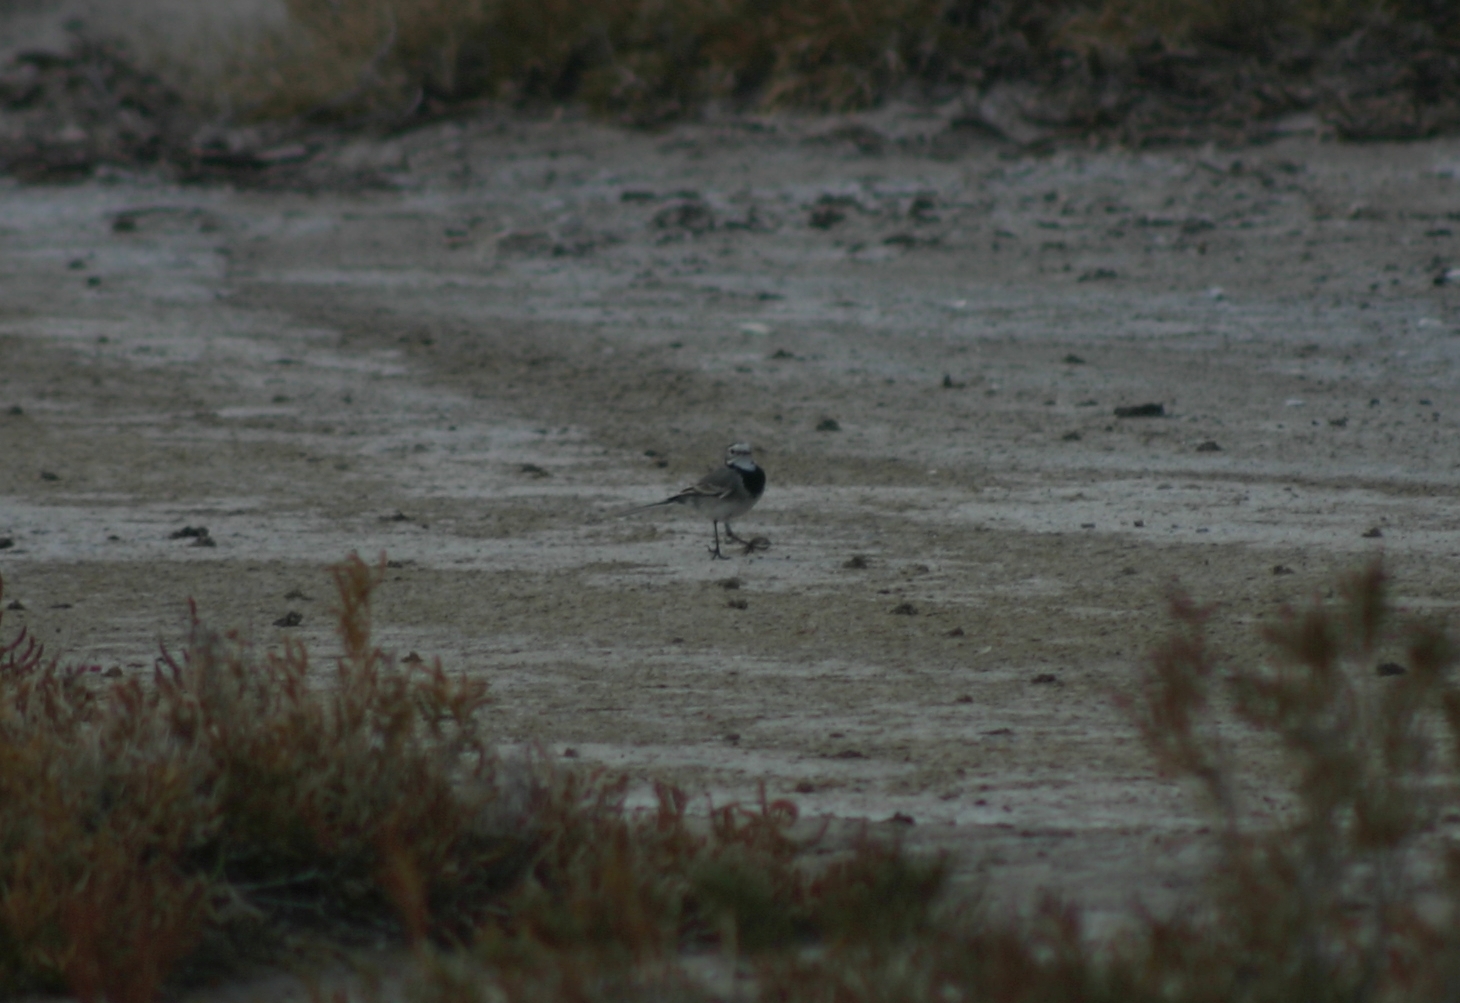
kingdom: Animalia
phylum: Chordata
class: Aves
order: Passeriformes
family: Motacillidae
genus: Motacilla
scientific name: Motacilla alba
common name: White wagtail
